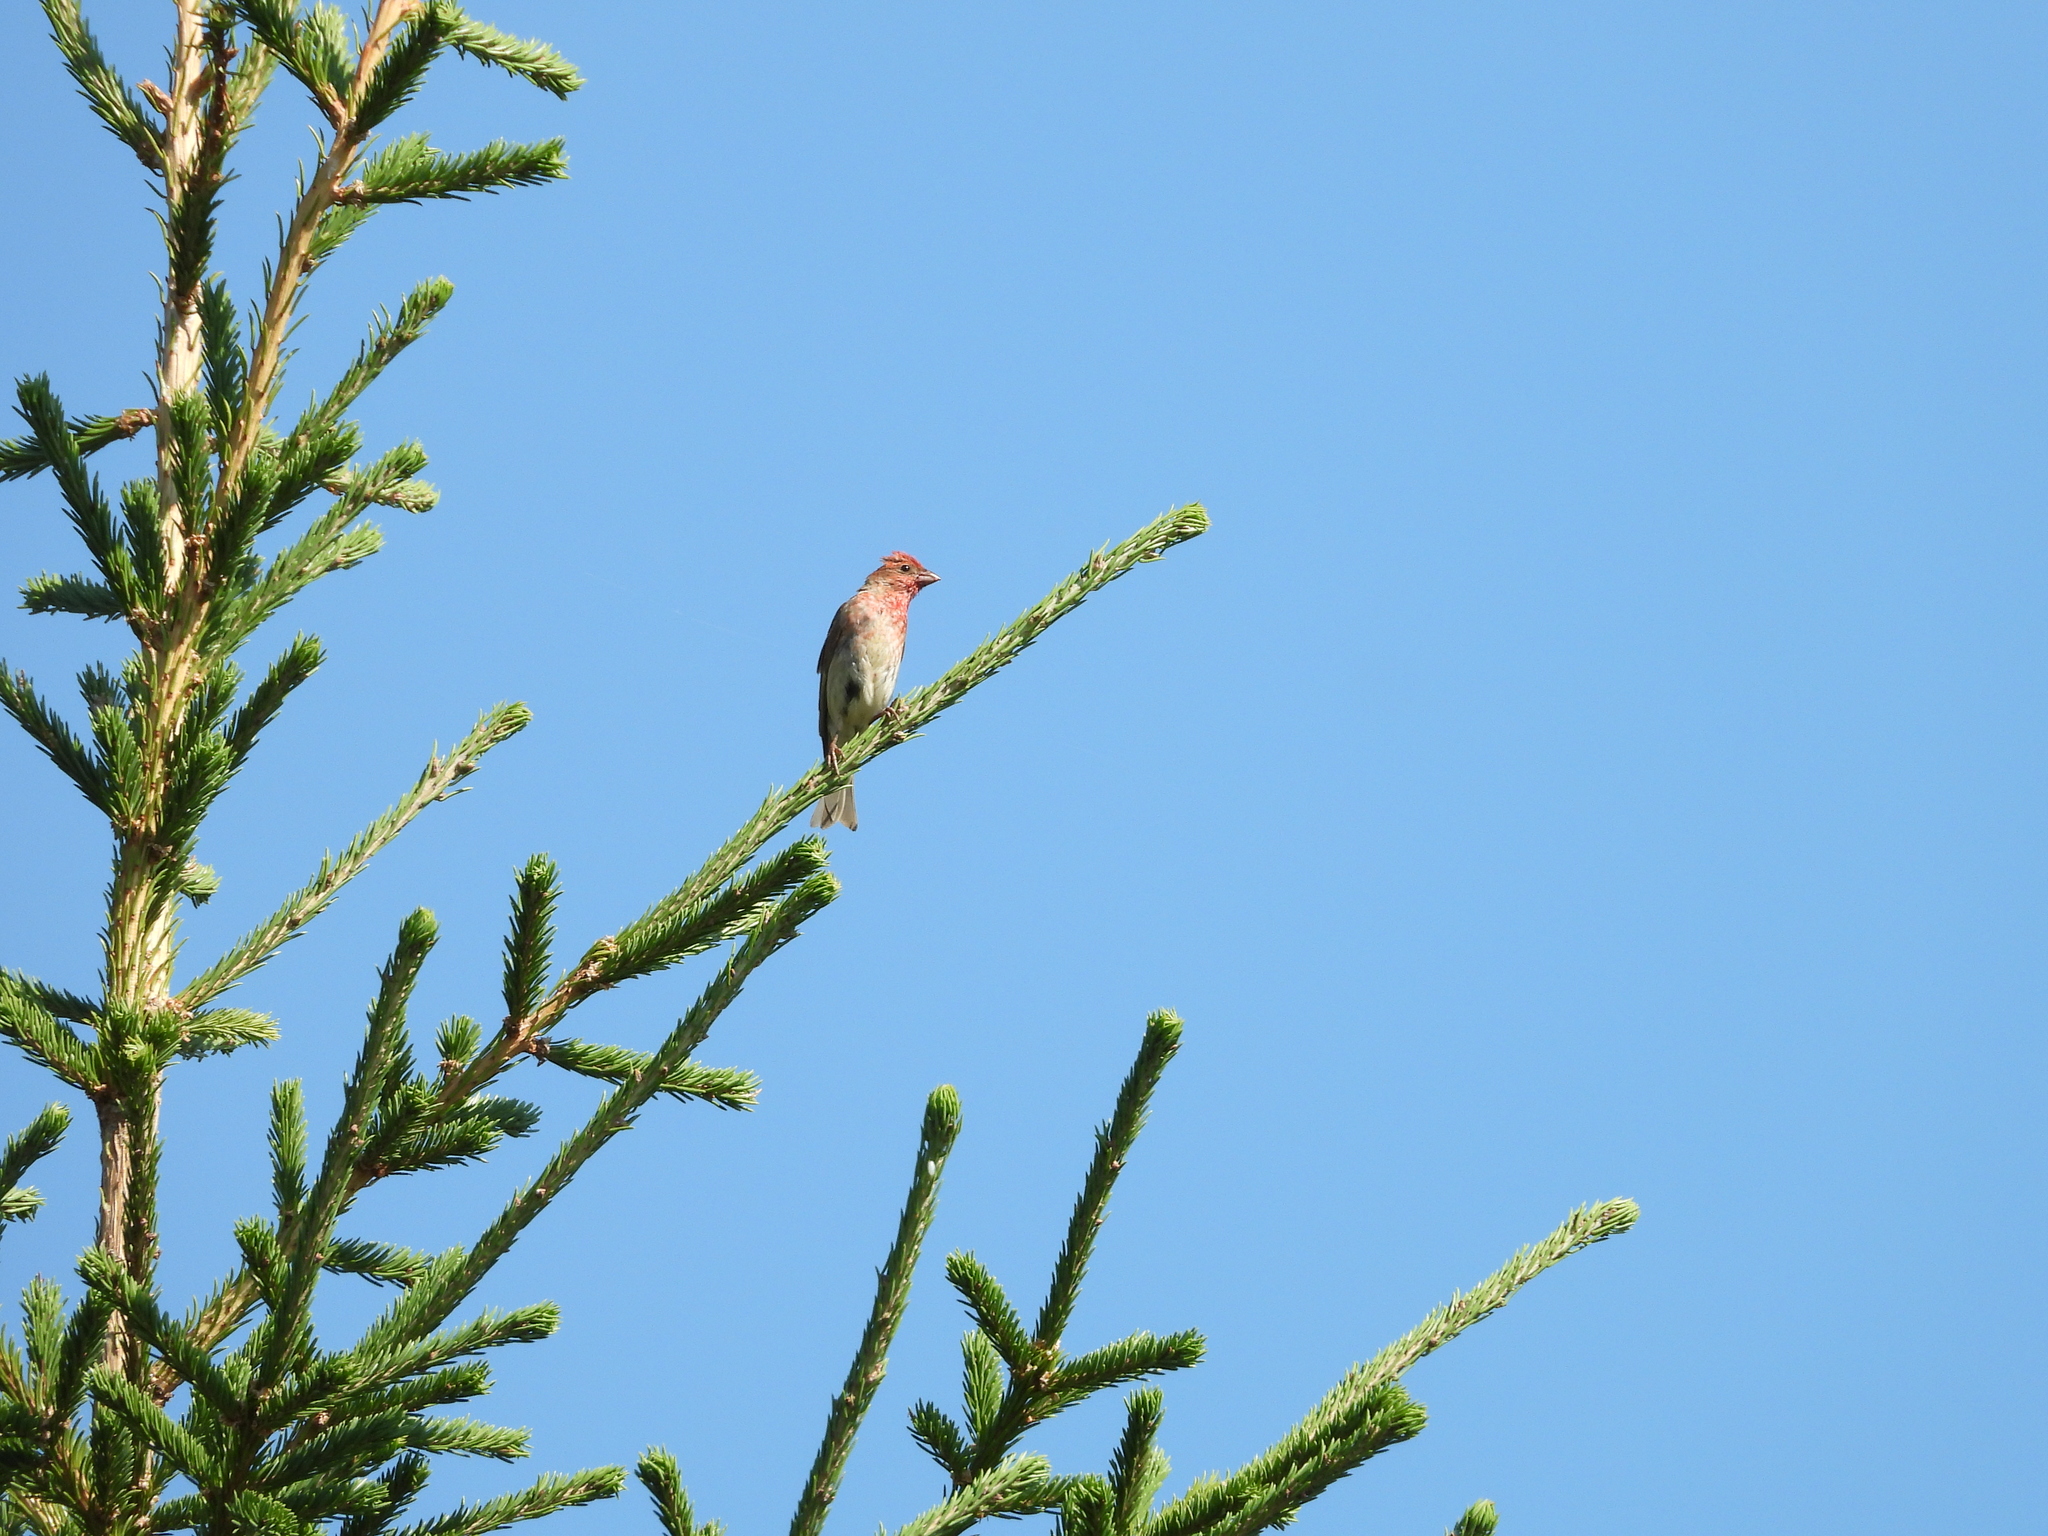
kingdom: Animalia
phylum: Chordata
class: Aves
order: Passeriformes
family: Fringillidae
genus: Carpodacus
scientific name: Carpodacus erythrinus
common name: Common rosefinch
